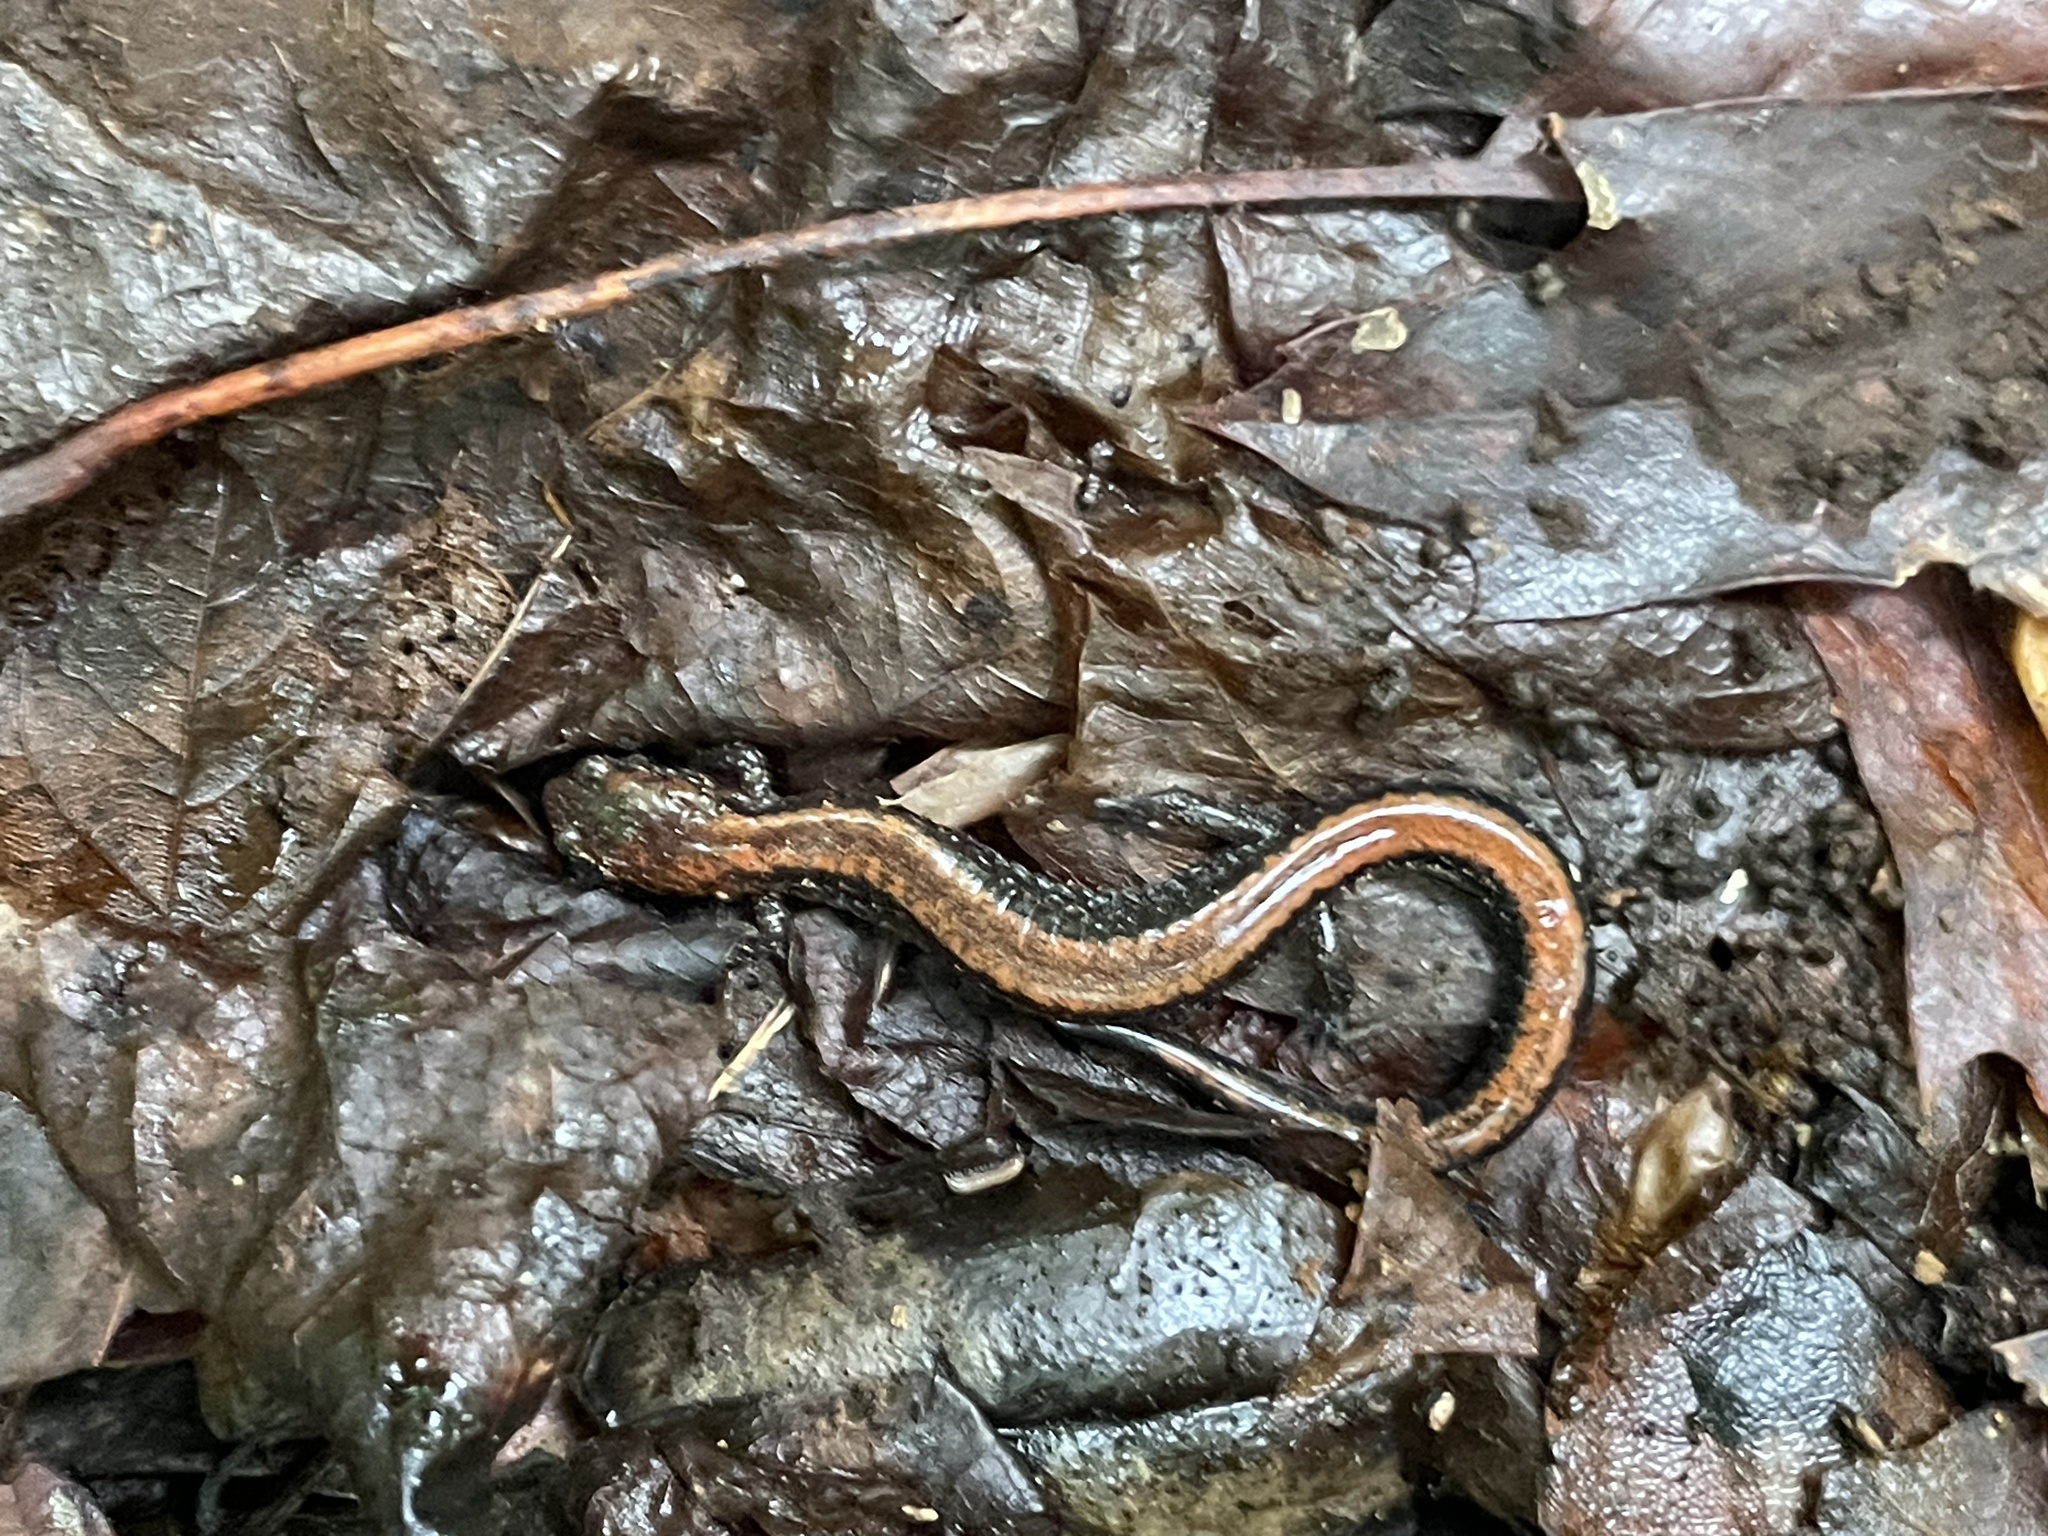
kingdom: Animalia
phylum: Chordata
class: Amphibia
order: Caudata
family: Plethodontidae
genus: Plethodon
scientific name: Plethodon cinereus
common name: Redback salamander
